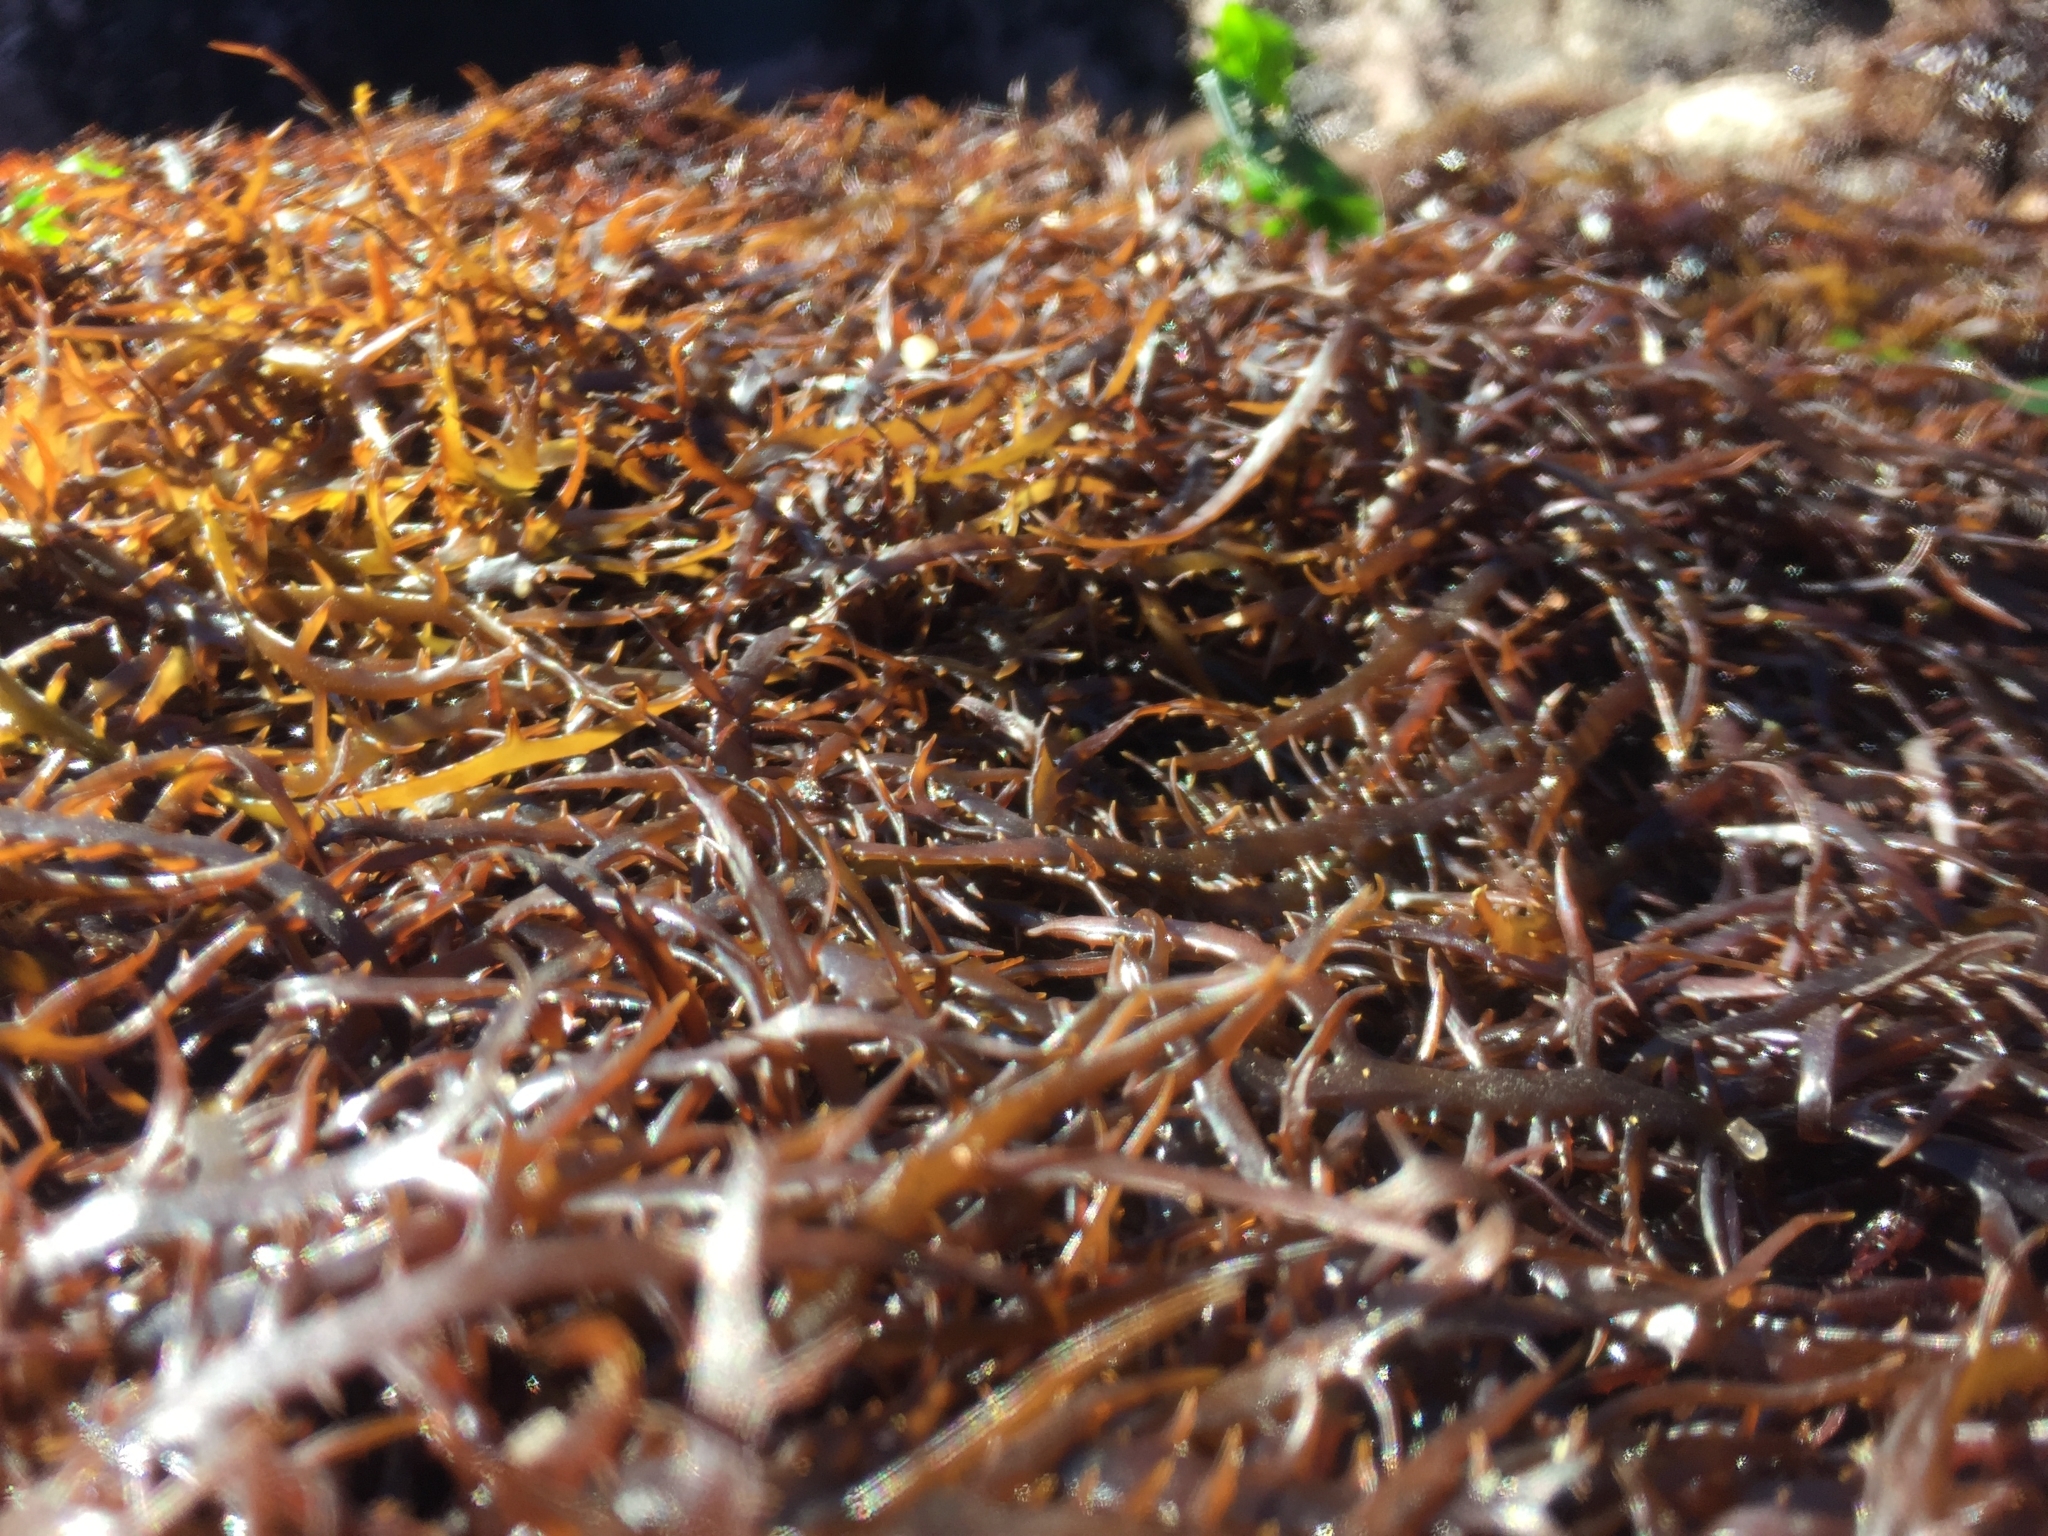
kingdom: Plantae
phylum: Rhodophyta
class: Florideophyceae
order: Gigartinales
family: Gigartinaceae
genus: Chondracanthus
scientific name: Chondracanthus chamissoi
